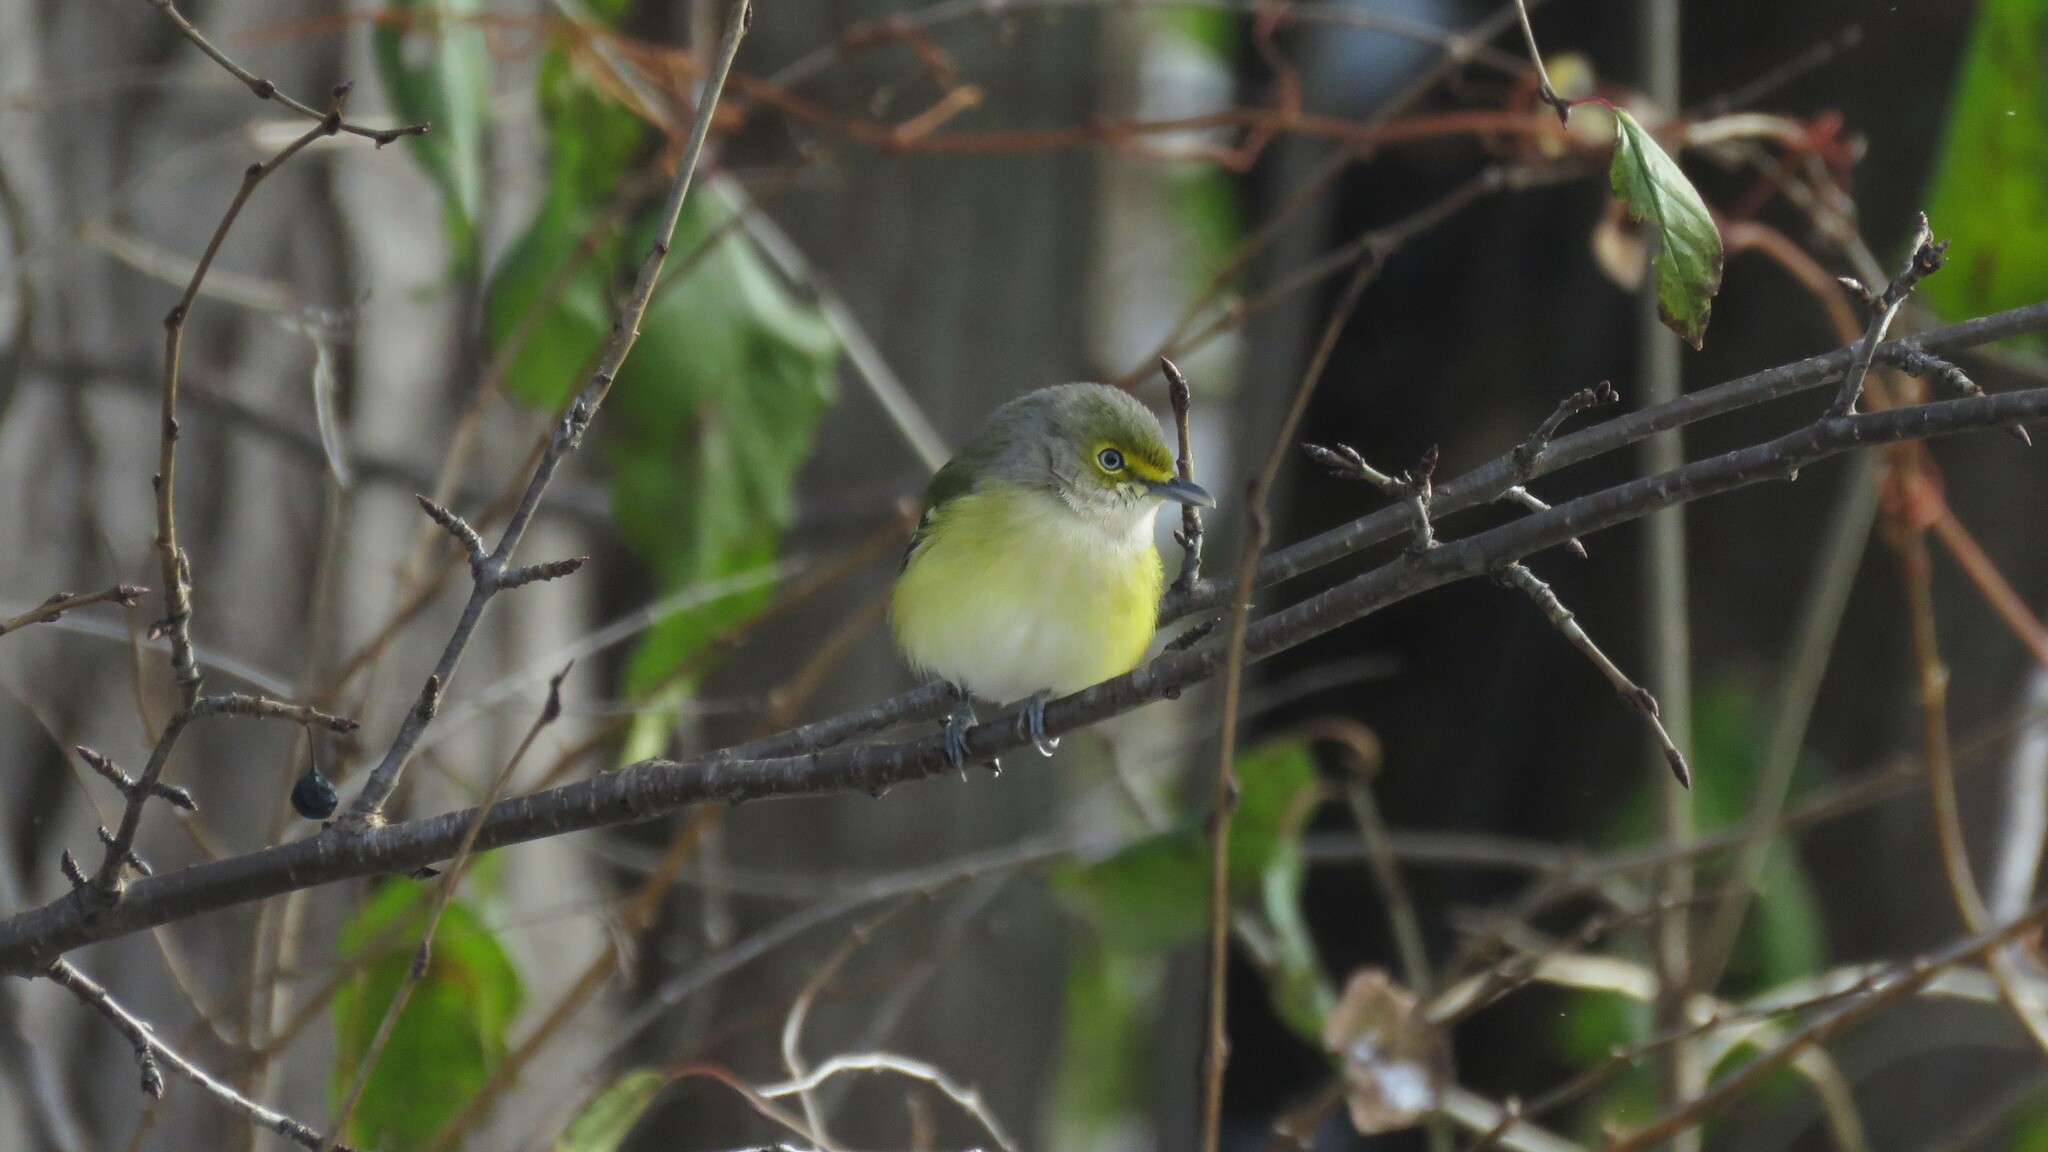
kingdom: Animalia
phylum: Chordata
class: Aves
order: Passeriformes
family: Vireonidae
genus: Vireo
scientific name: Vireo griseus
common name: White-eyed vireo
